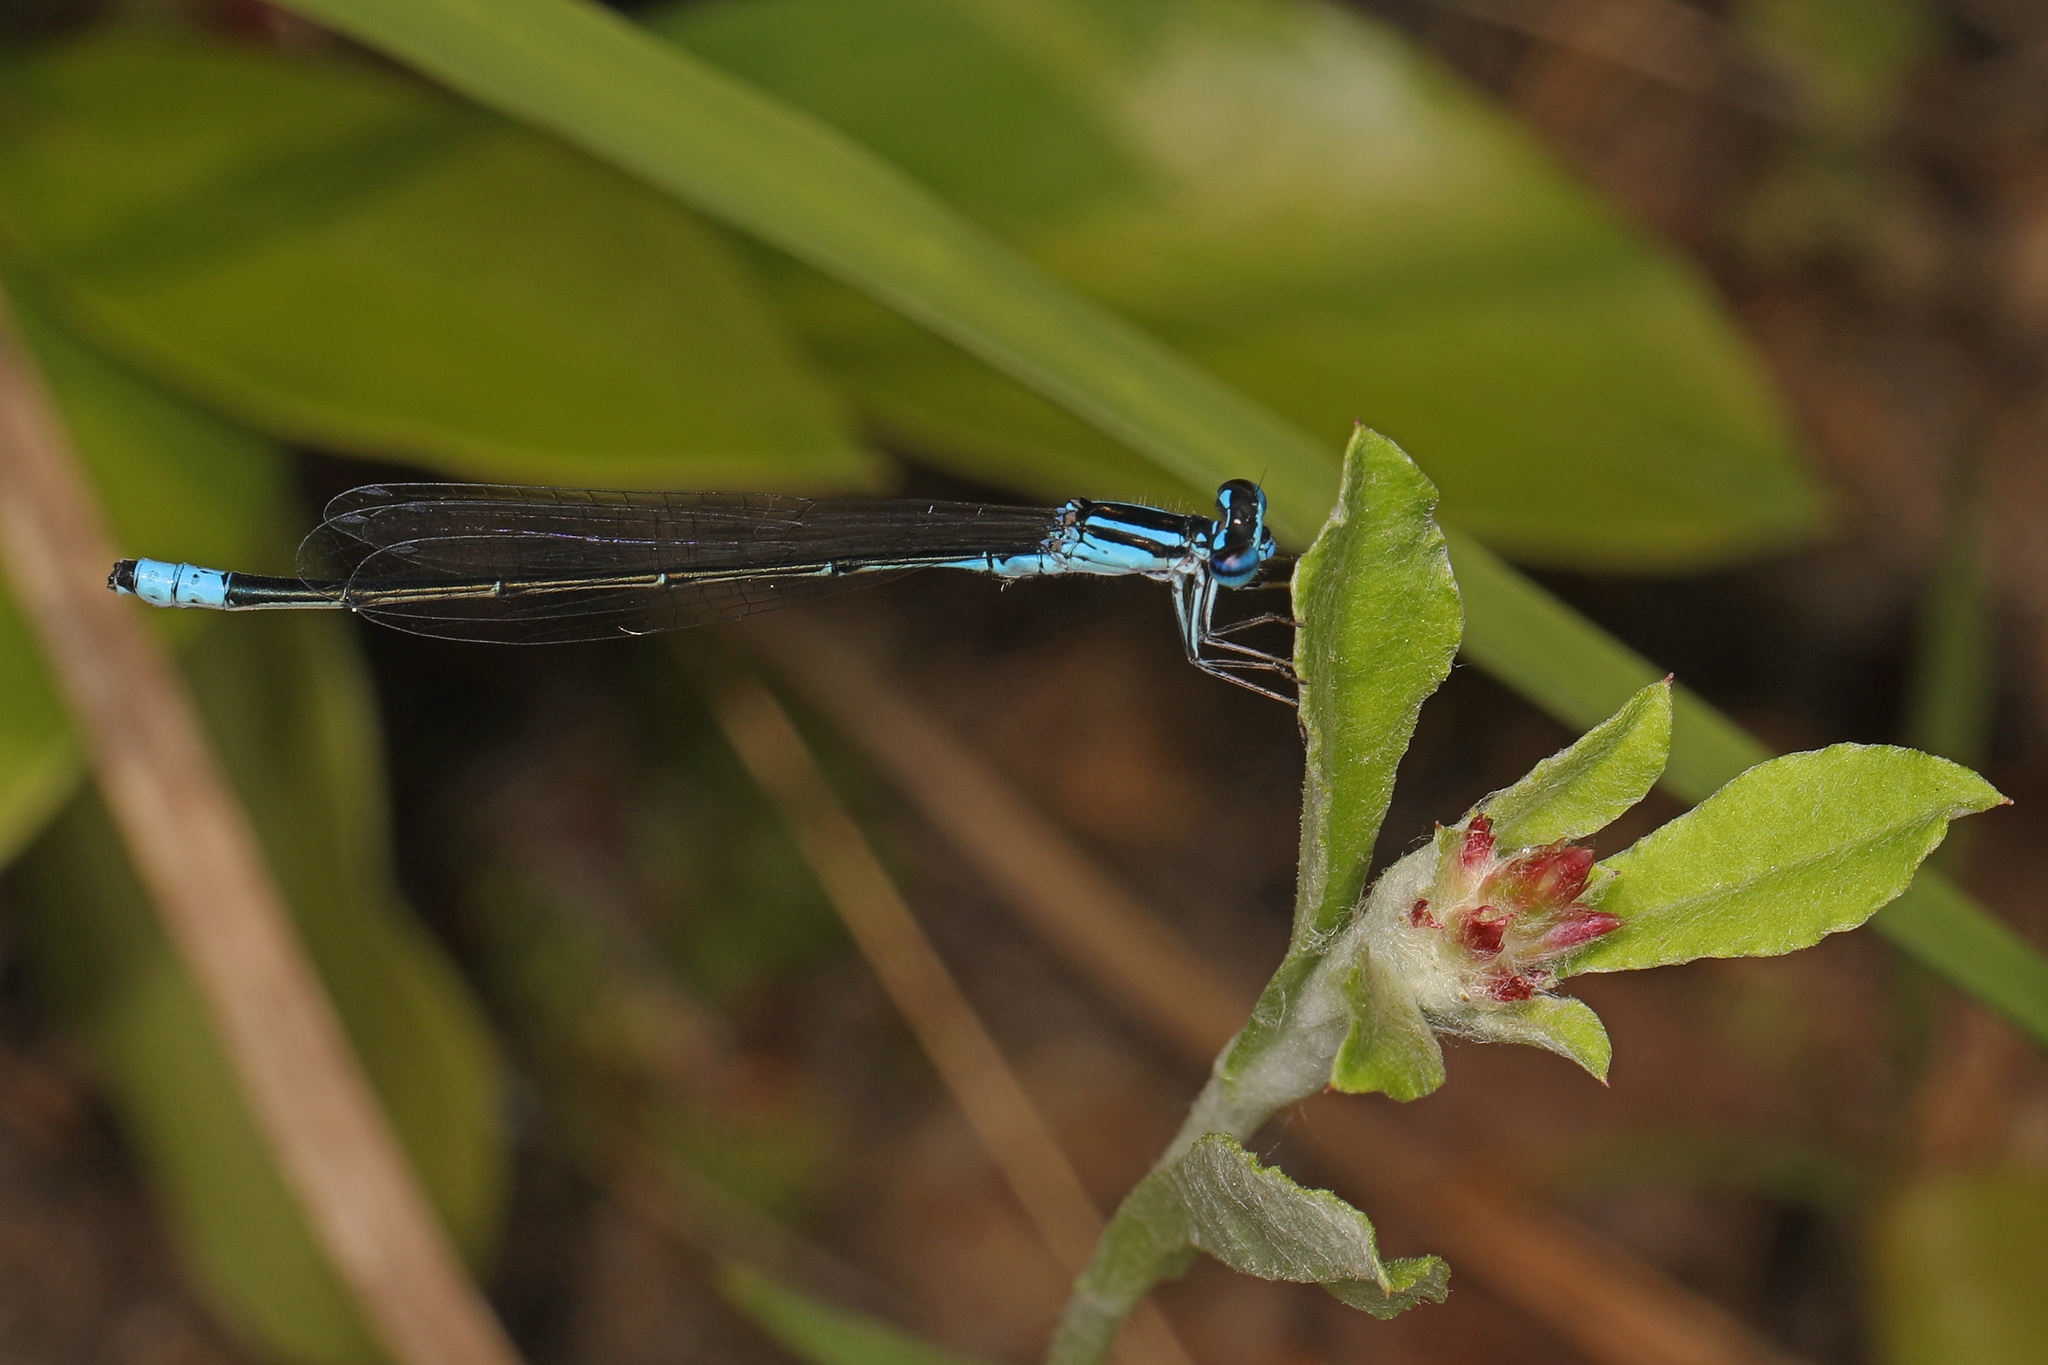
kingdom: Animalia
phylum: Arthropoda
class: Insecta
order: Odonata
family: Coenagrionidae
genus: Enallagma
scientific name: Enallagma divagans
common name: Turquoise bluet
